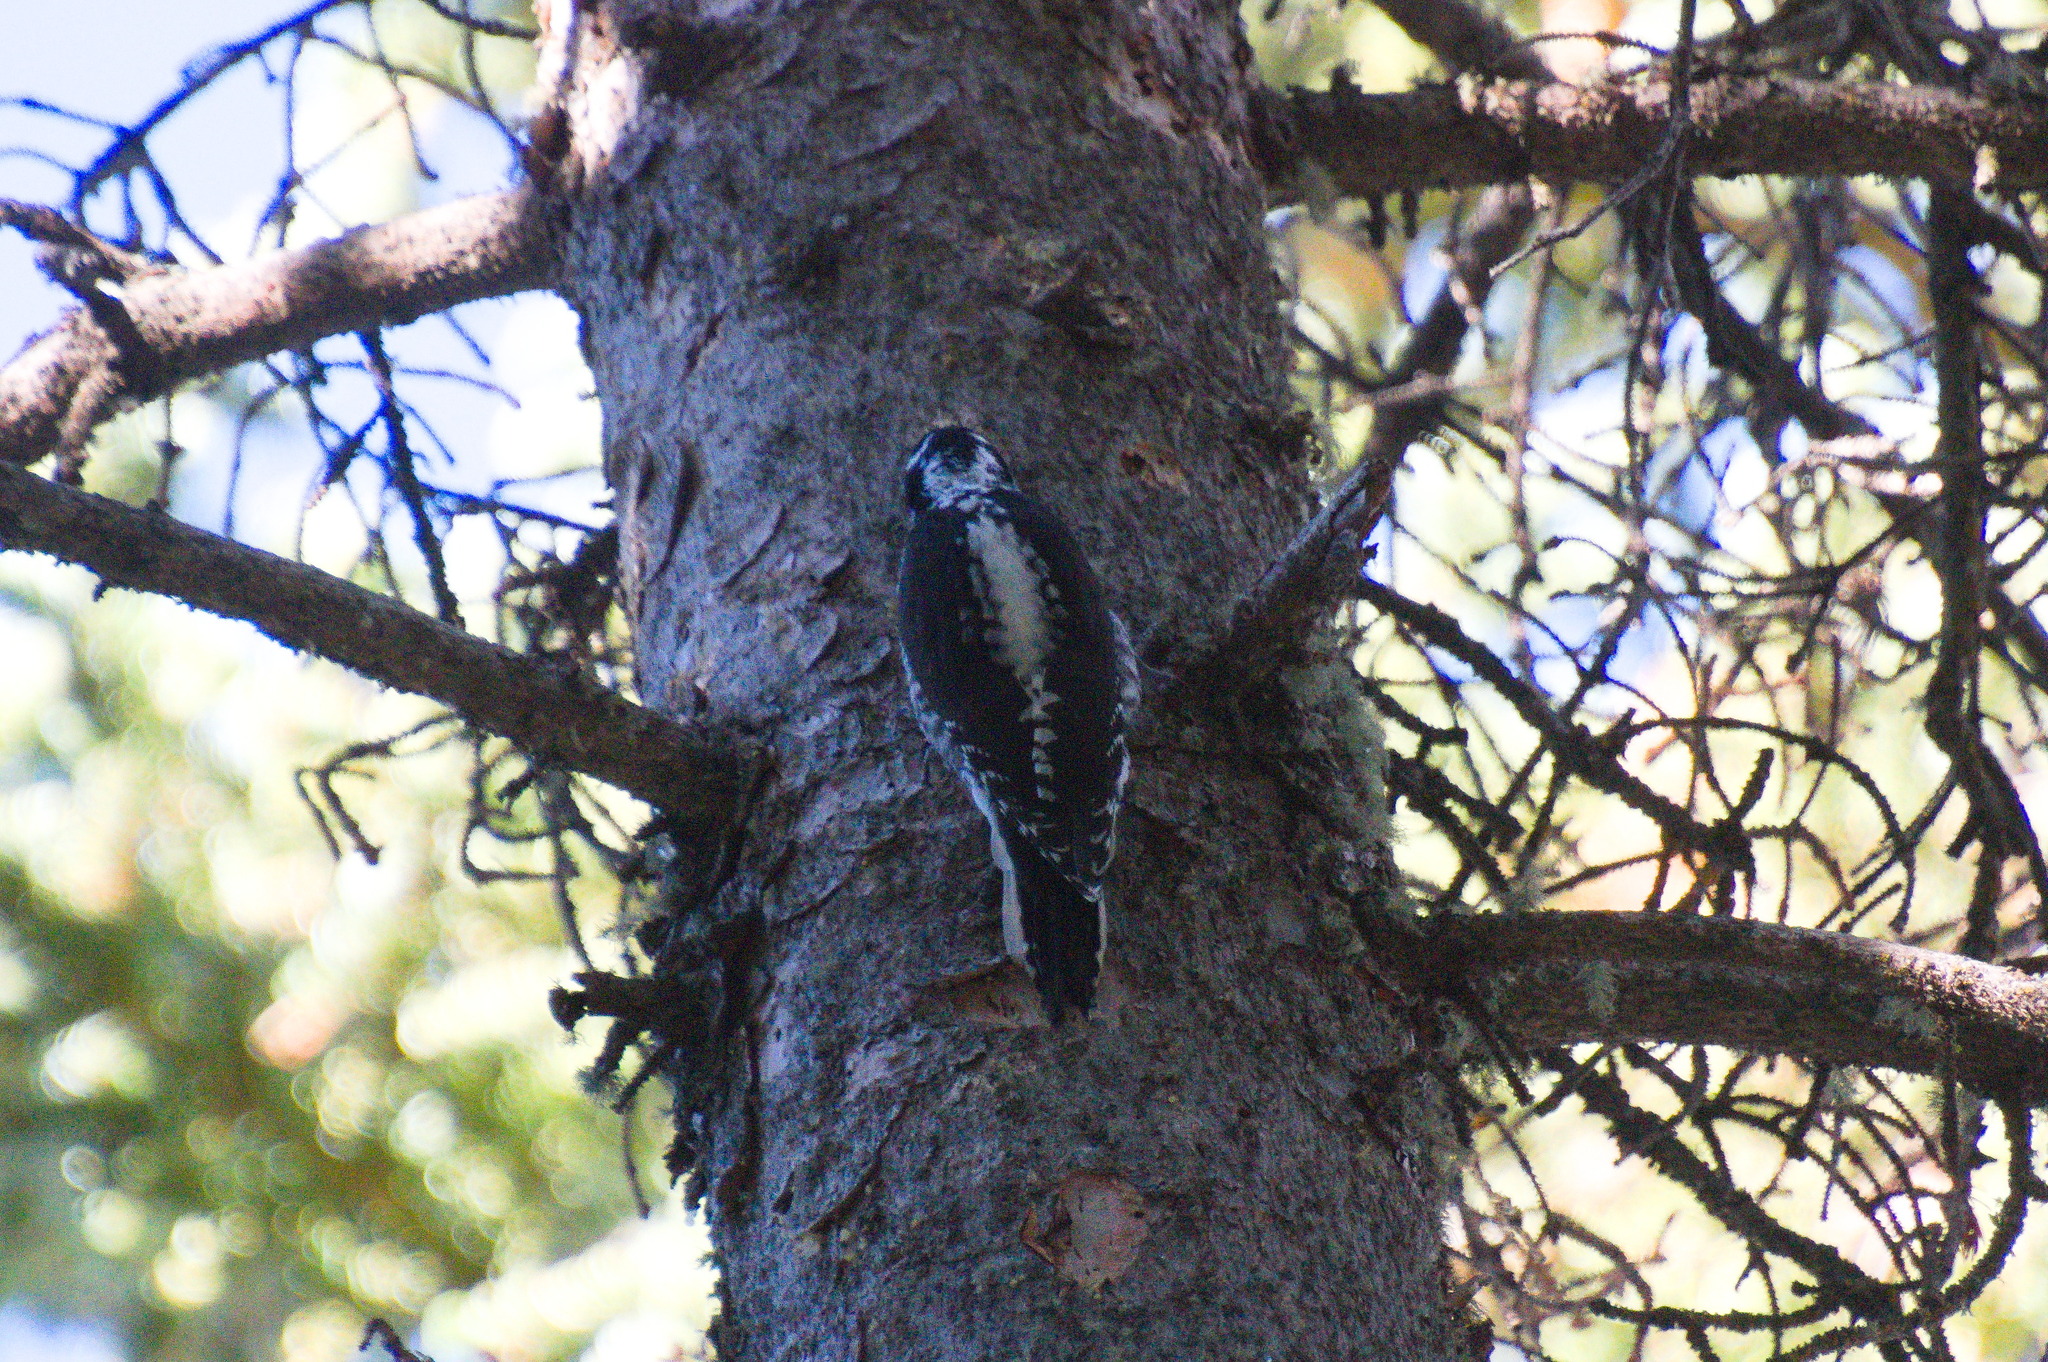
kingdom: Animalia
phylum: Chordata
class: Aves
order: Piciformes
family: Picidae
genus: Picoides
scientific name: Picoides dorsalis
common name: American three-toed woodpecker
